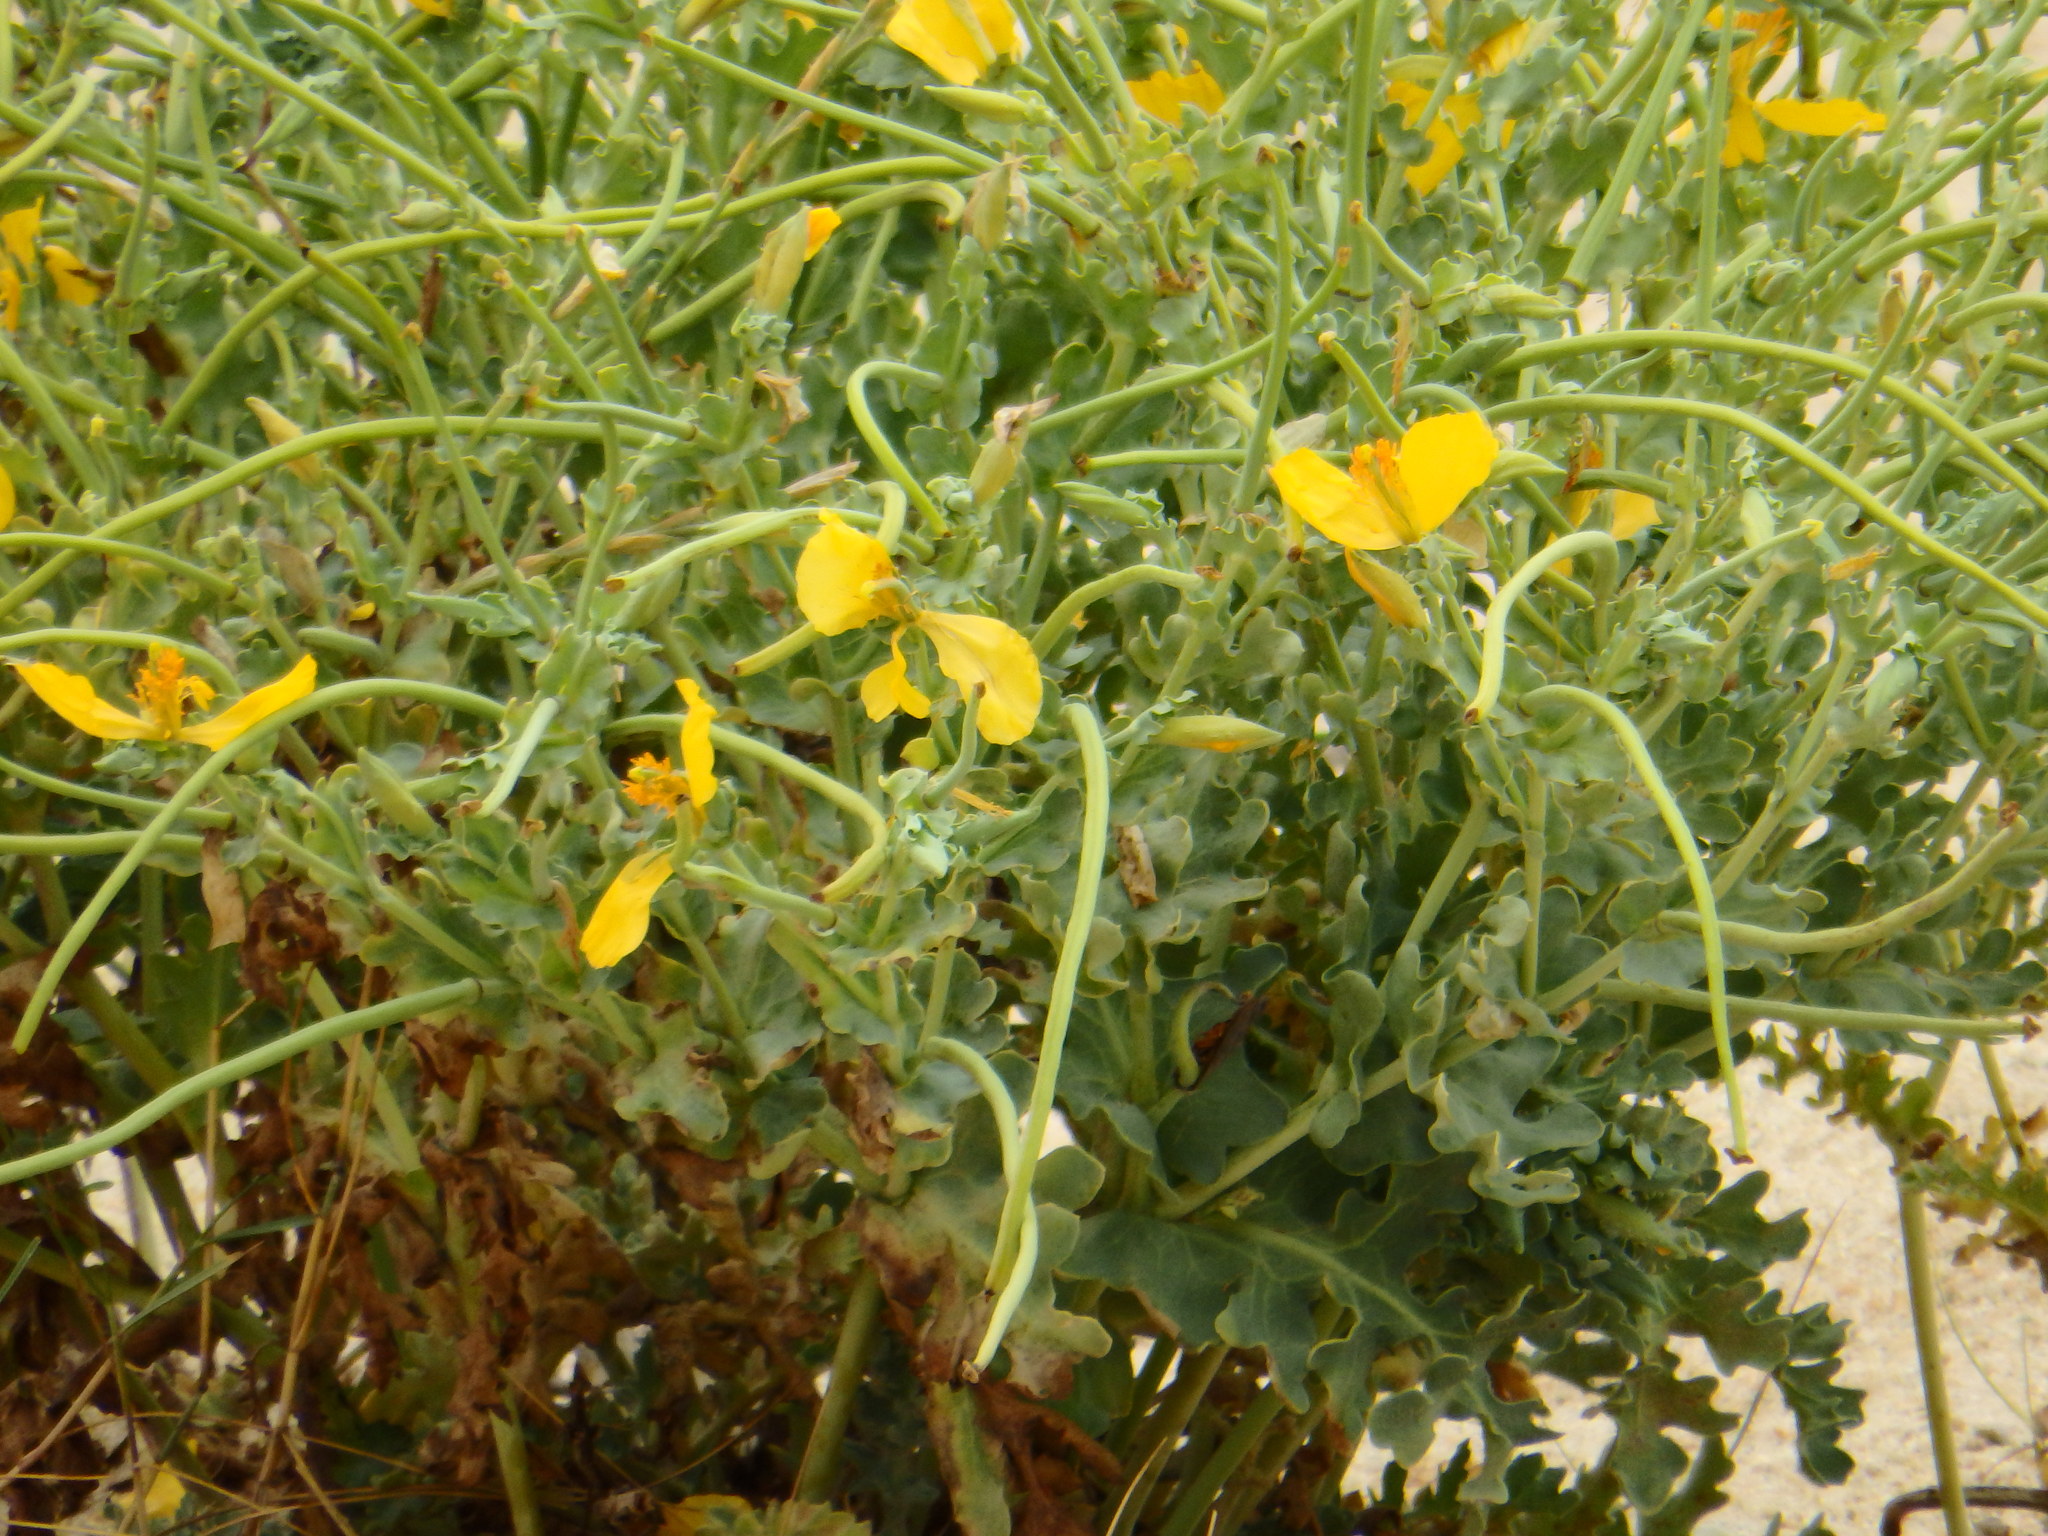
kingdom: Plantae
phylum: Tracheophyta
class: Magnoliopsida
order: Ranunculales
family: Papaveraceae
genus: Glaucium
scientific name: Glaucium flavum
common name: Yellow horned-poppy
